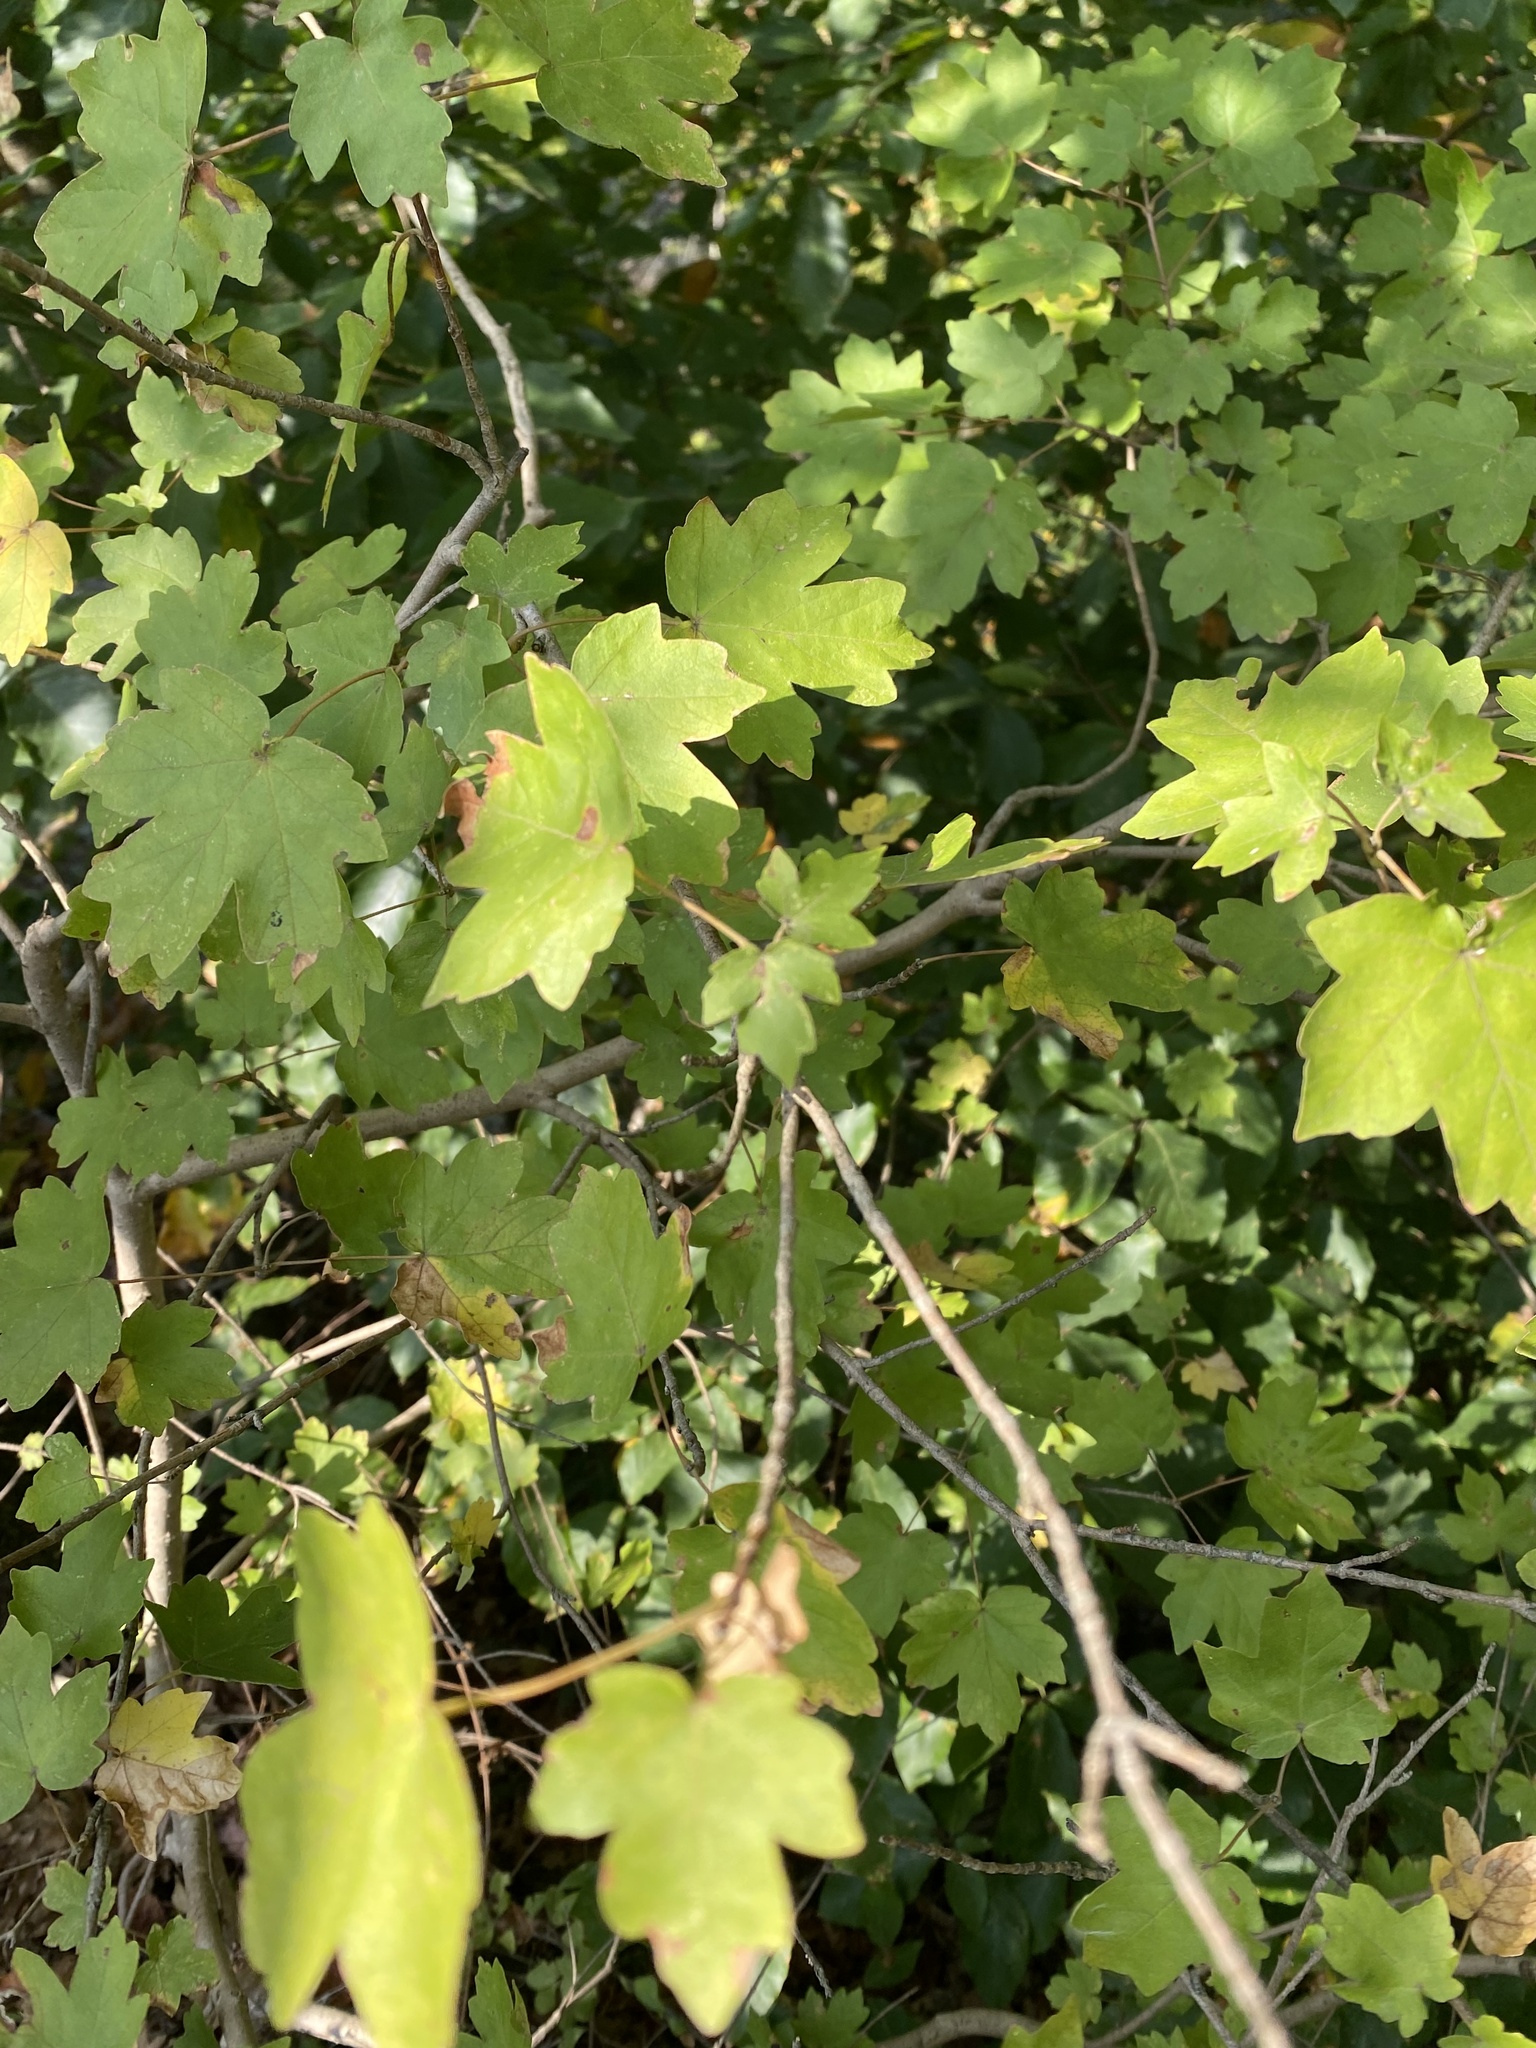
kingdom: Plantae
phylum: Tracheophyta
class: Magnoliopsida
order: Sapindales
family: Sapindaceae
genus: Acer
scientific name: Acer campestre
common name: Field maple
